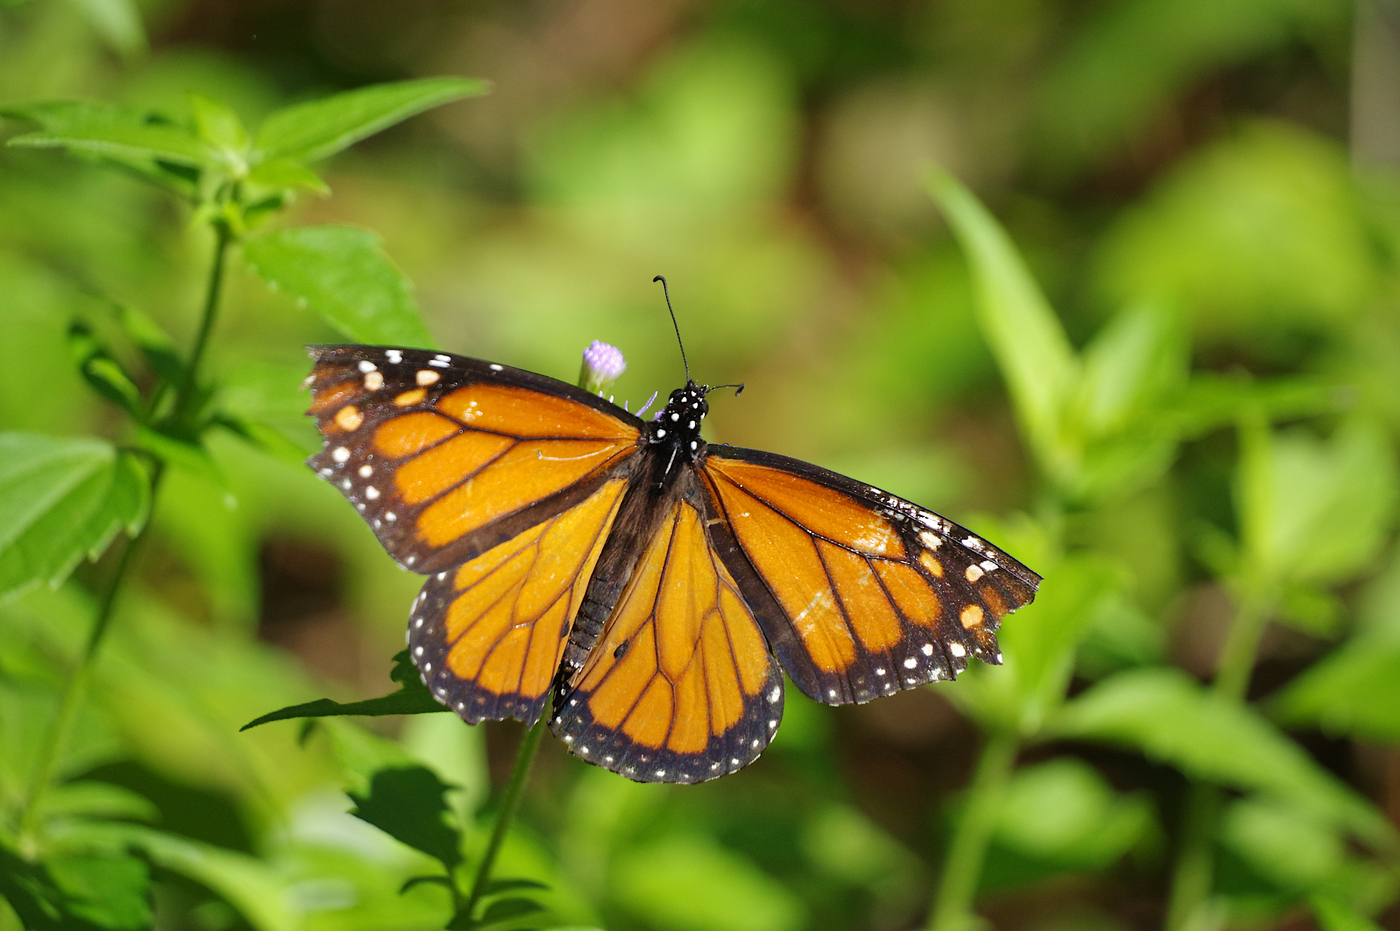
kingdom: Animalia
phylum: Arthropoda
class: Insecta
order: Lepidoptera
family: Nymphalidae
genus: Danaus
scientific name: Danaus plexippus
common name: Monarch
